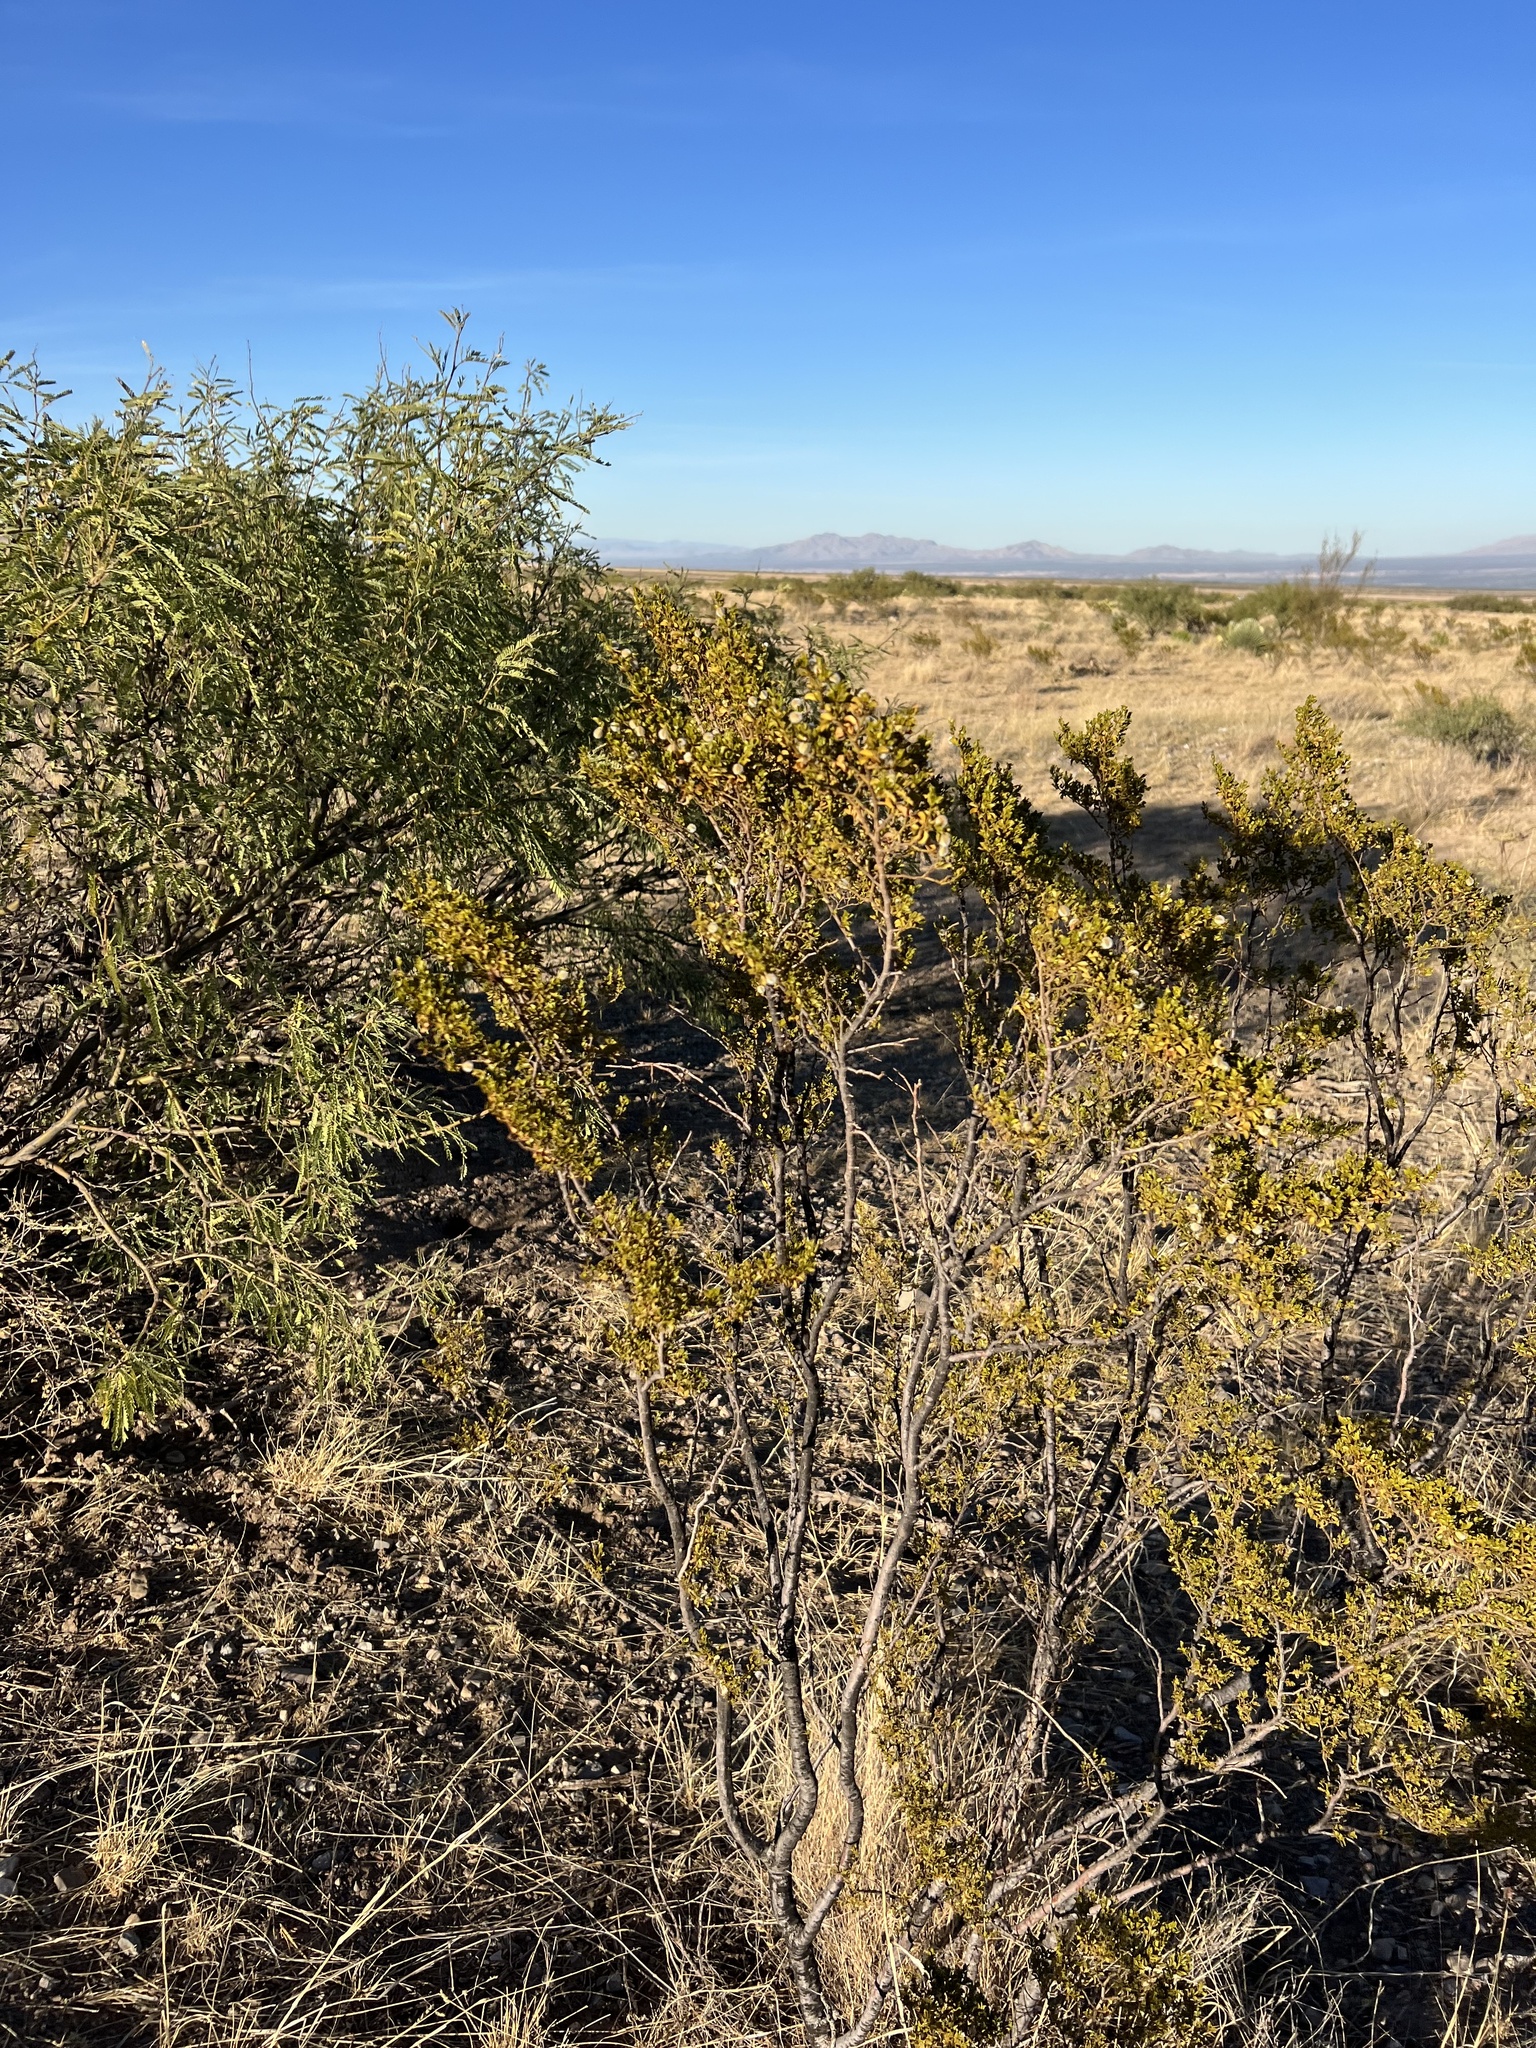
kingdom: Plantae
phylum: Tracheophyta
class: Magnoliopsida
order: Zygophyllales
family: Zygophyllaceae
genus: Larrea
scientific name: Larrea tridentata
